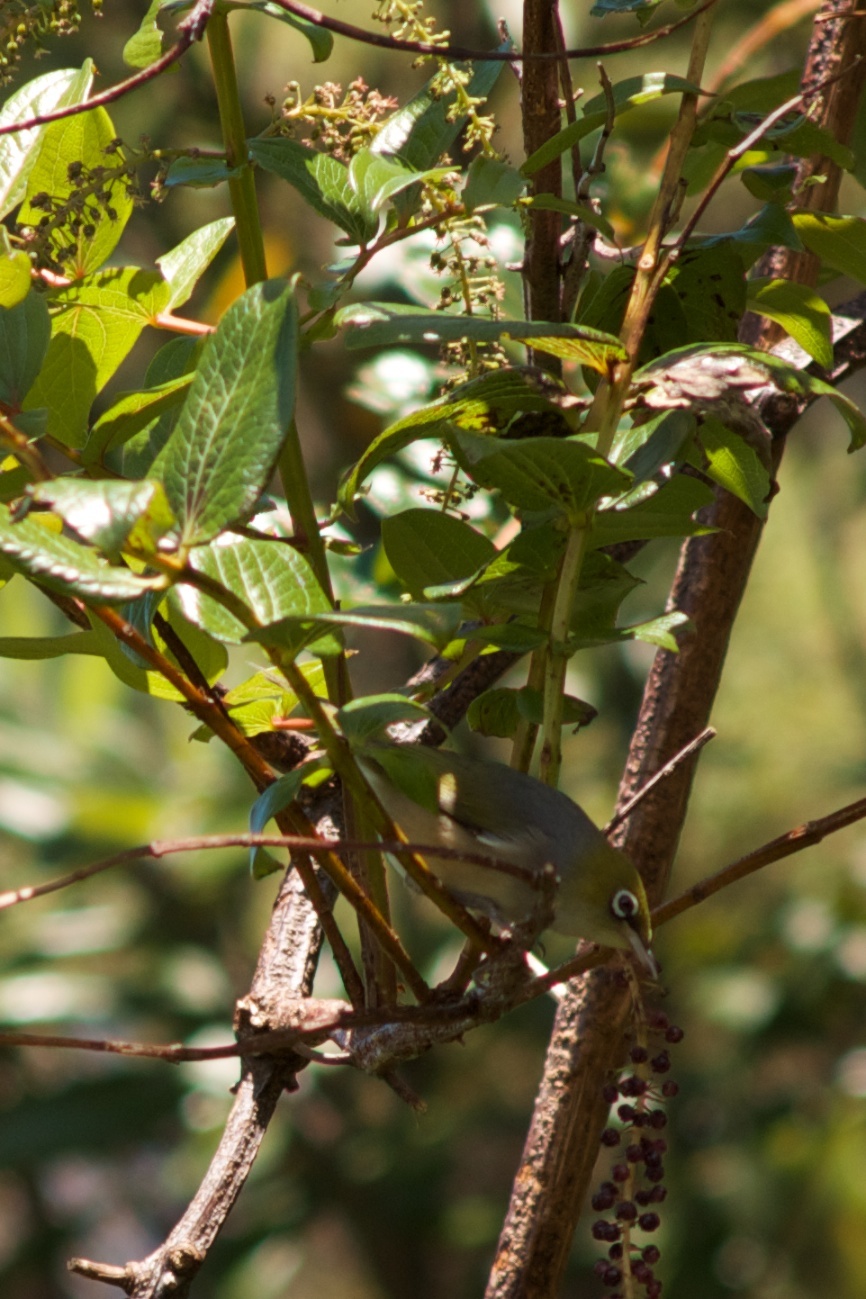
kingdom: Animalia
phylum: Chordata
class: Aves
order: Passeriformes
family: Zosteropidae
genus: Zosterops
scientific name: Zosterops lateralis
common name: Silvereye
